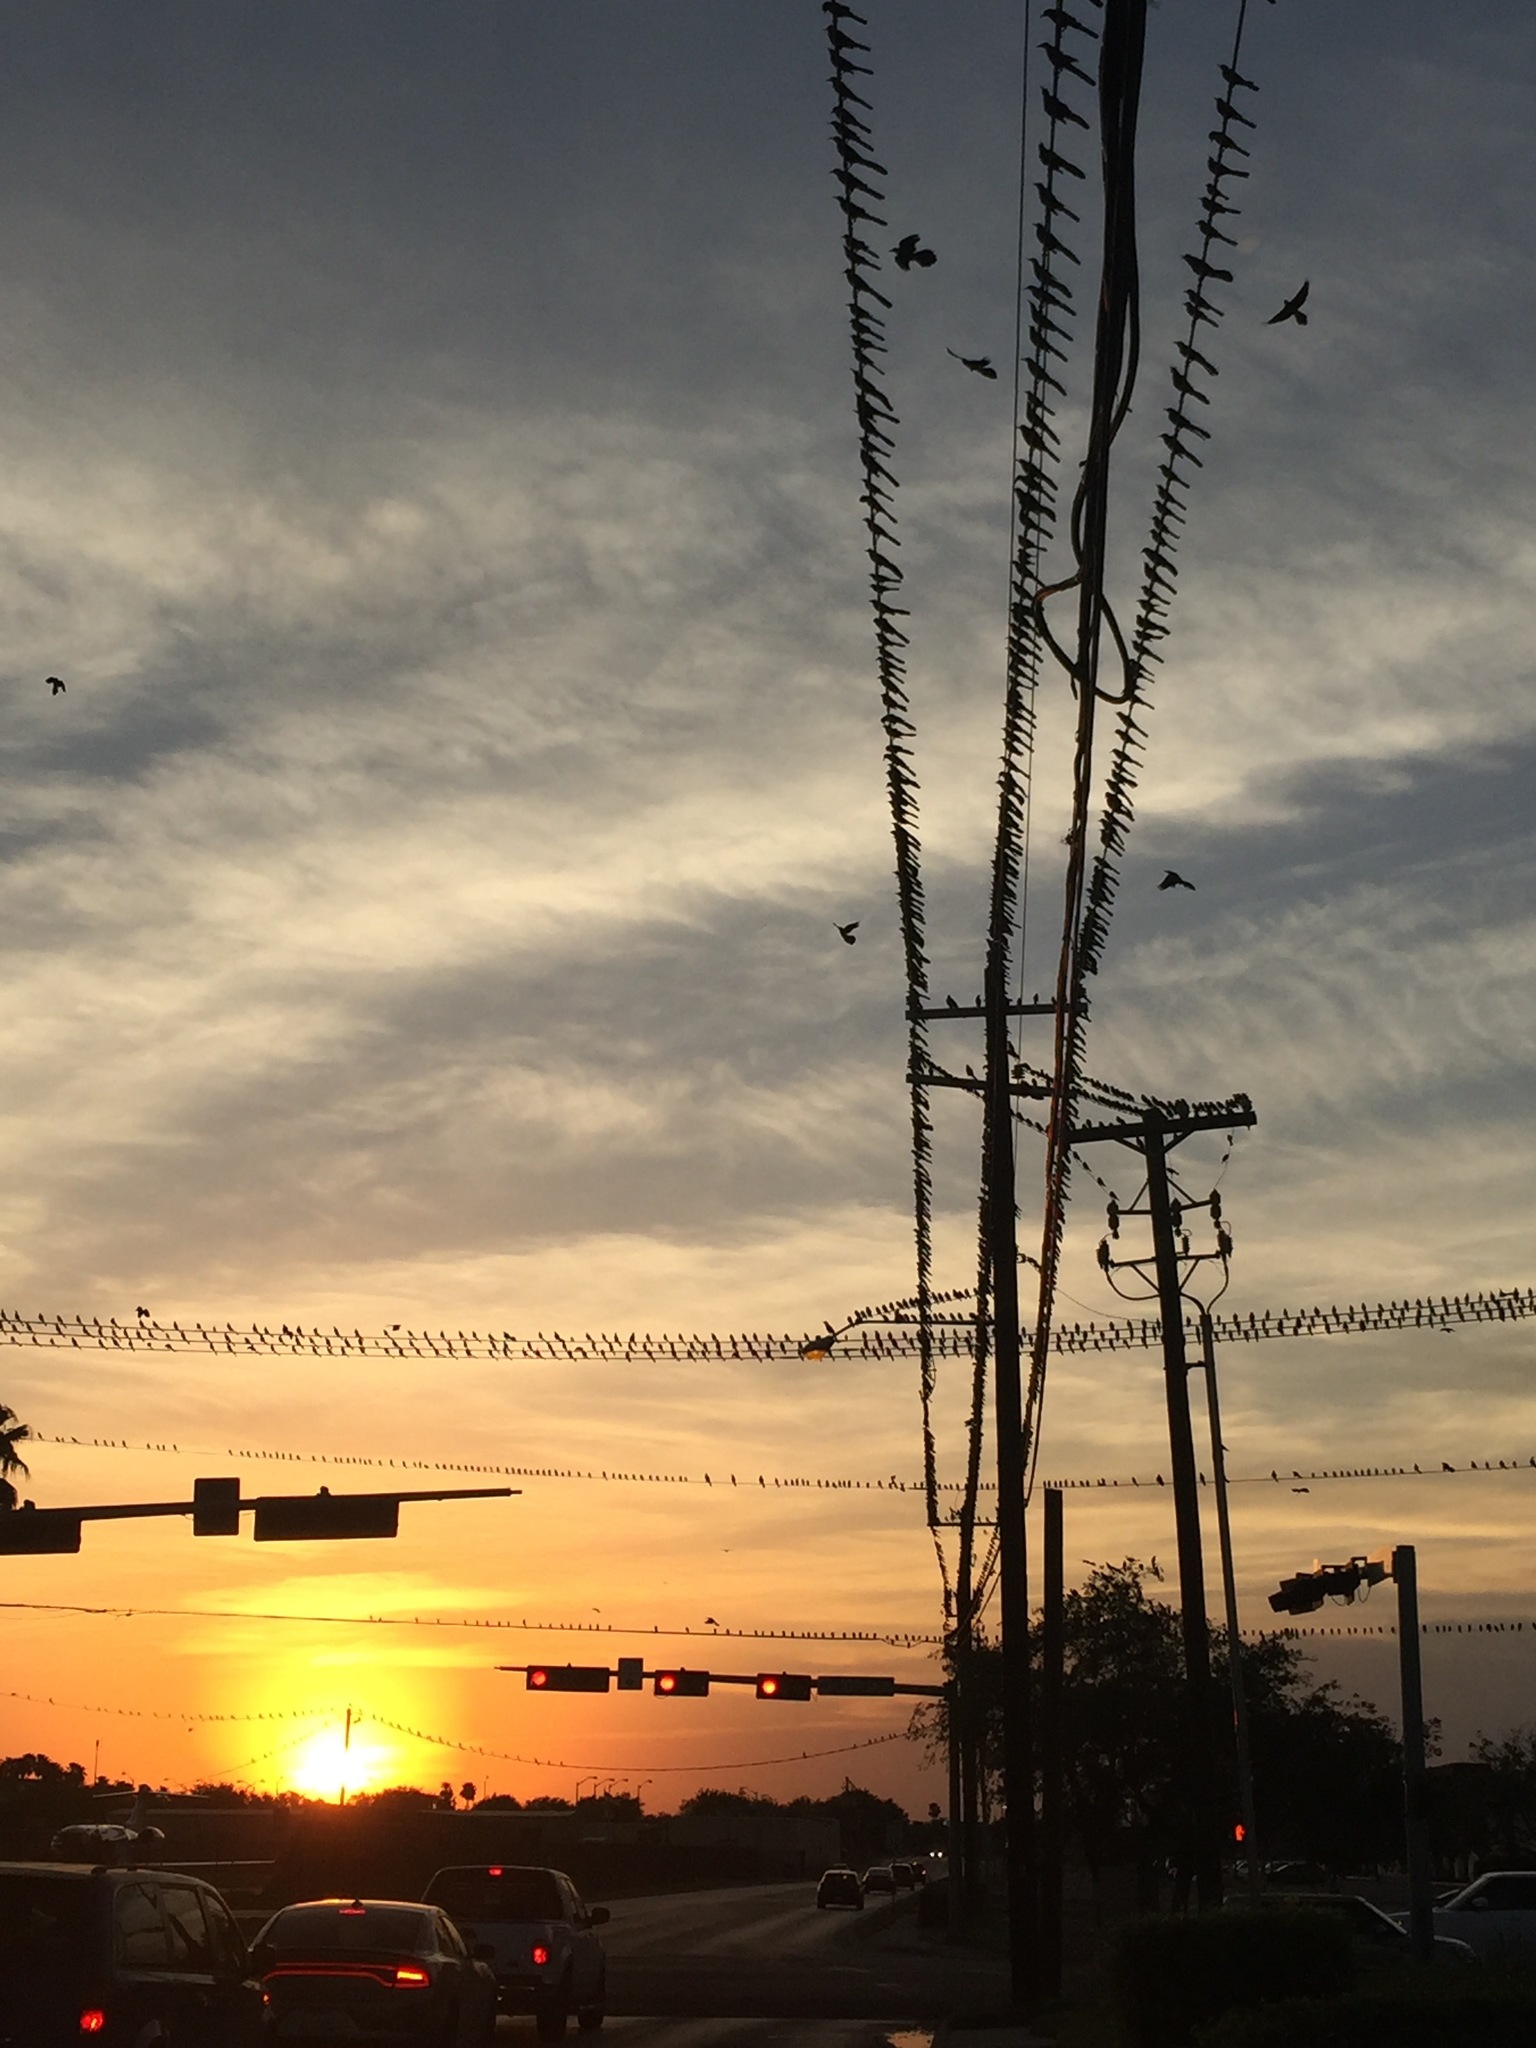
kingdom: Animalia
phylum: Chordata
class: Aves
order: Passeriformes
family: Icteridae
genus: Quiscalus
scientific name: Quiscalus mexicanus
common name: Great-tailed grackle
